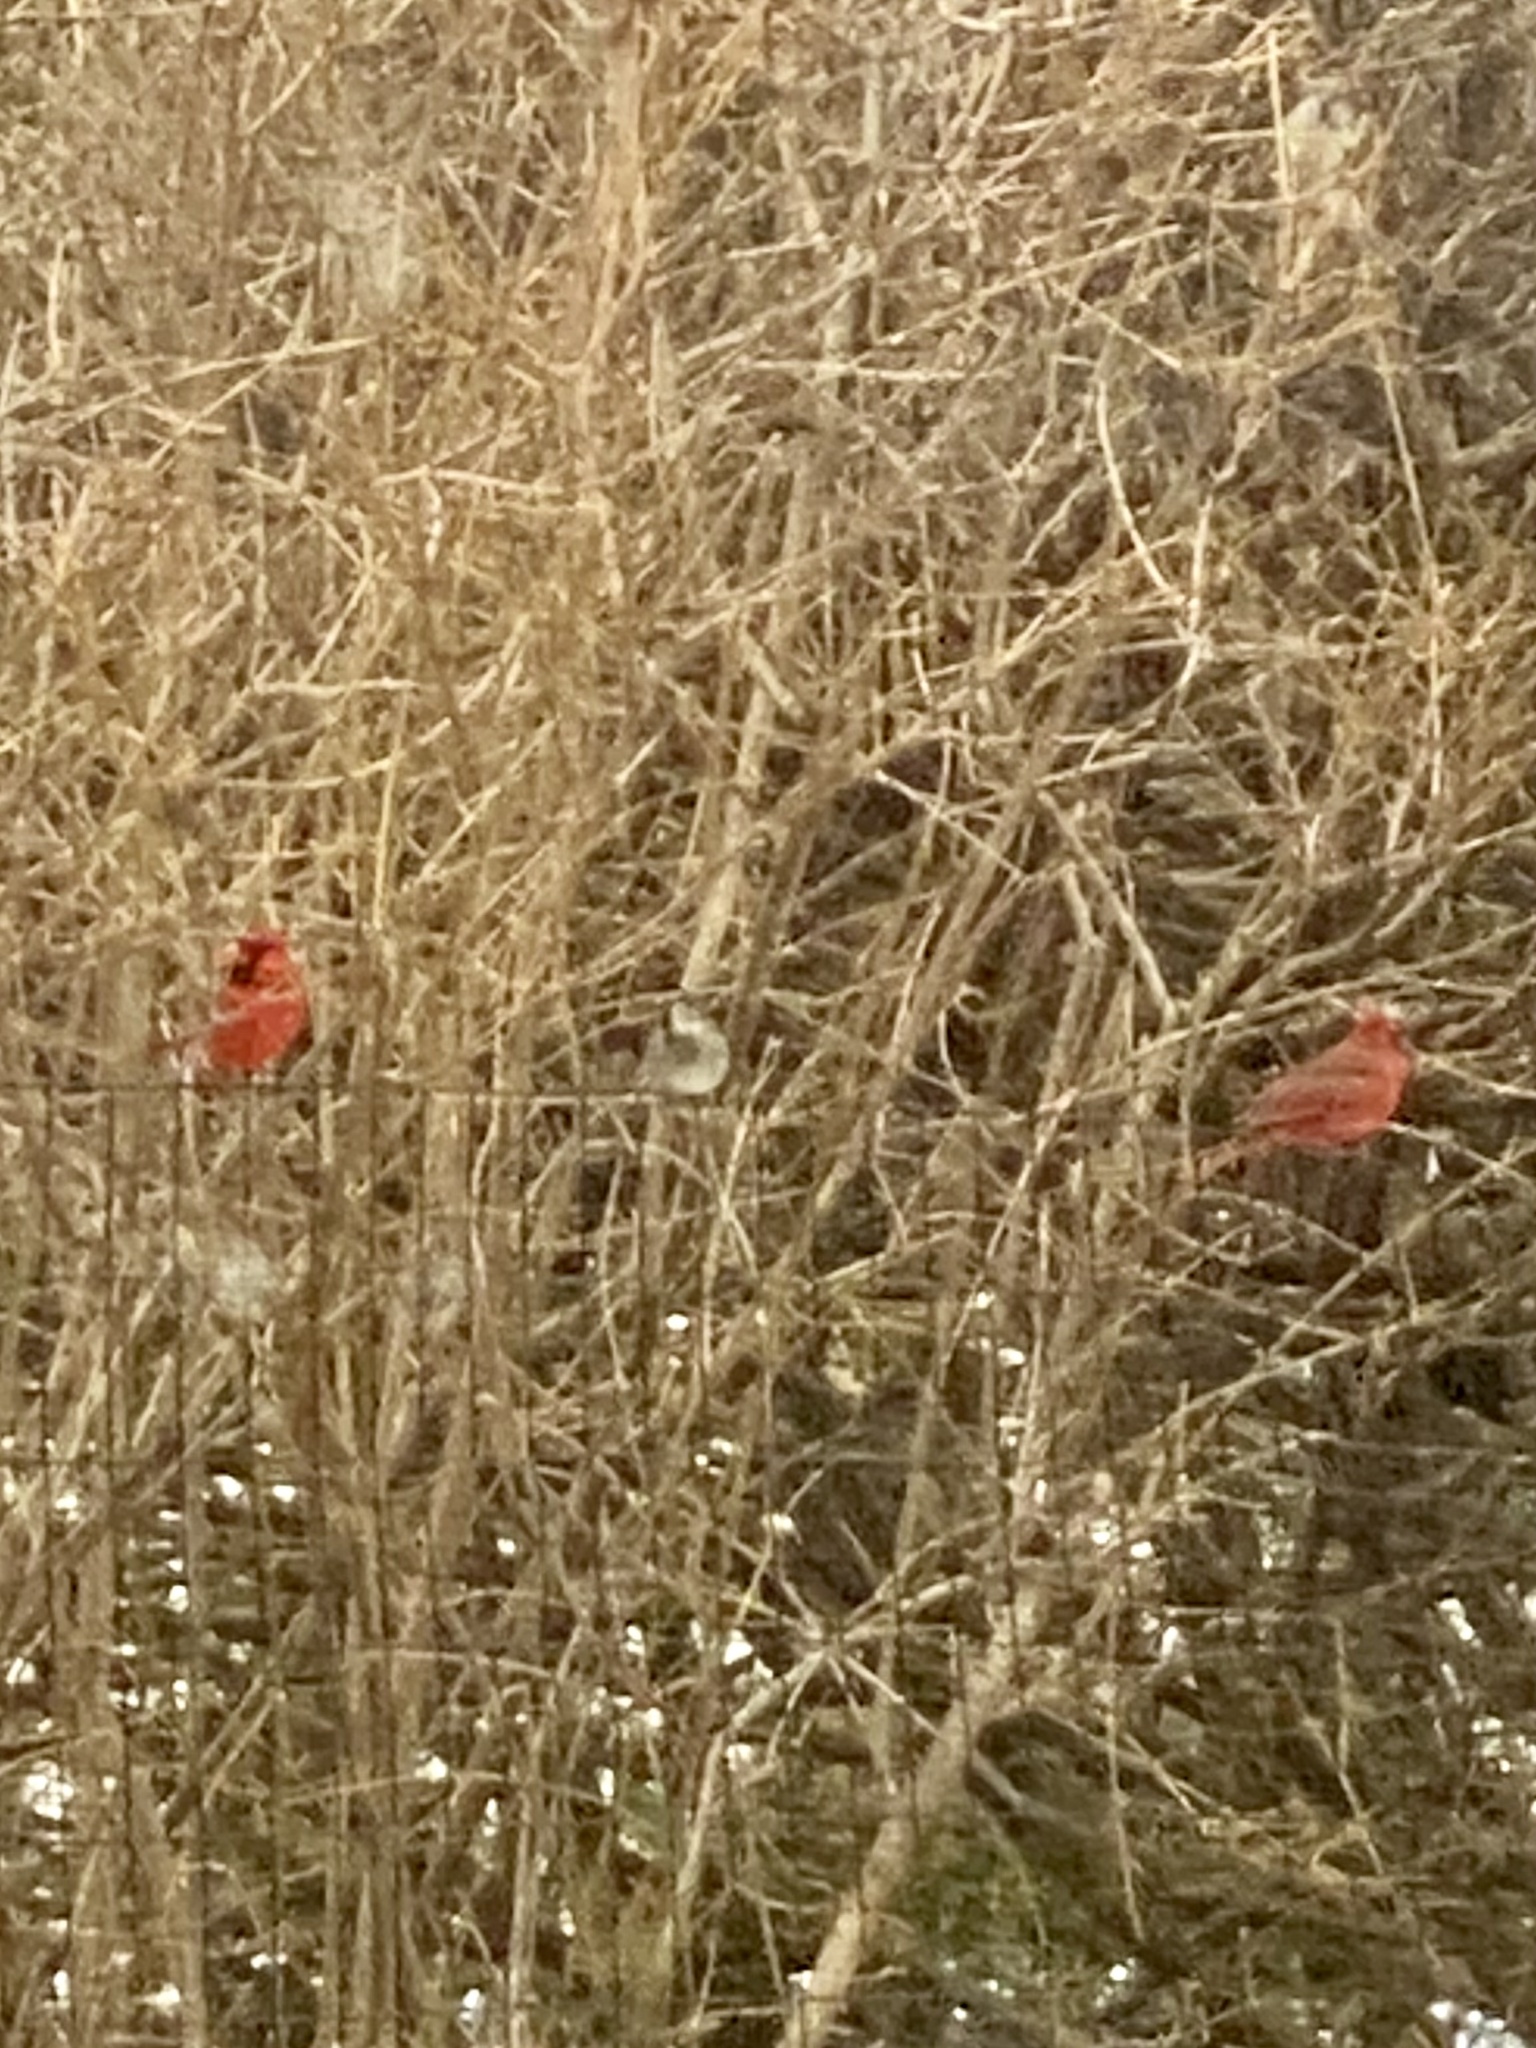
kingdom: Animalia
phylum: Chordata
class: Aves
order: Passeriformes
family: Cardinalidae
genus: Cardinalis
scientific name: Cardinalis cardinalis
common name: Northern cardinal
